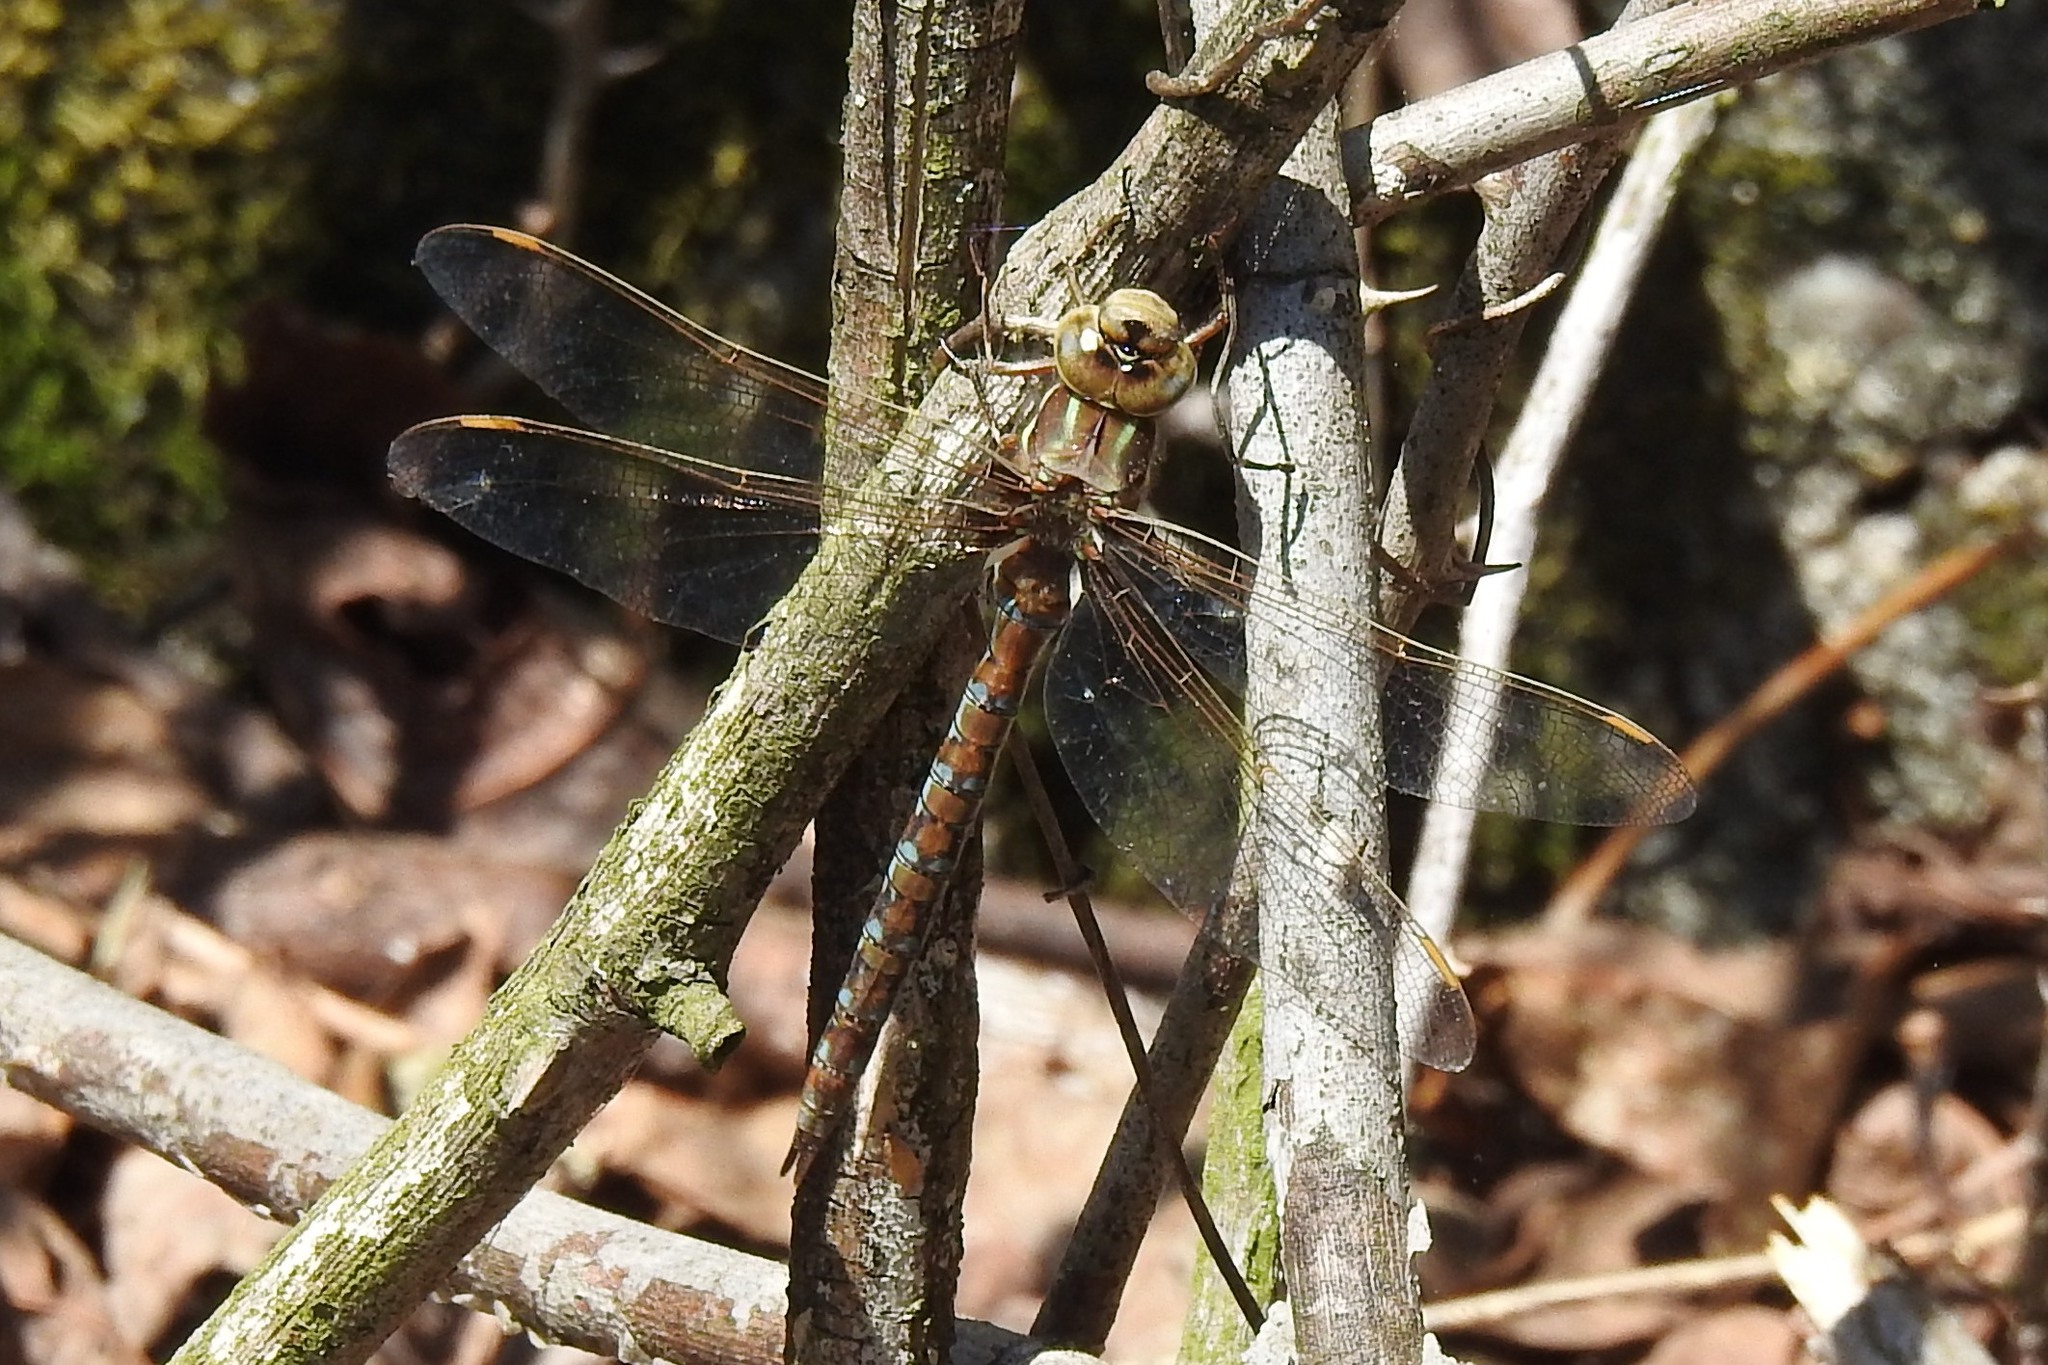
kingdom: Animalia
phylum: Arthropoda
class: Insecta
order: Odonata
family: Aeshnidae
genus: Basiaeschna
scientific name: Basiaeschna janata
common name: Springtime darner
